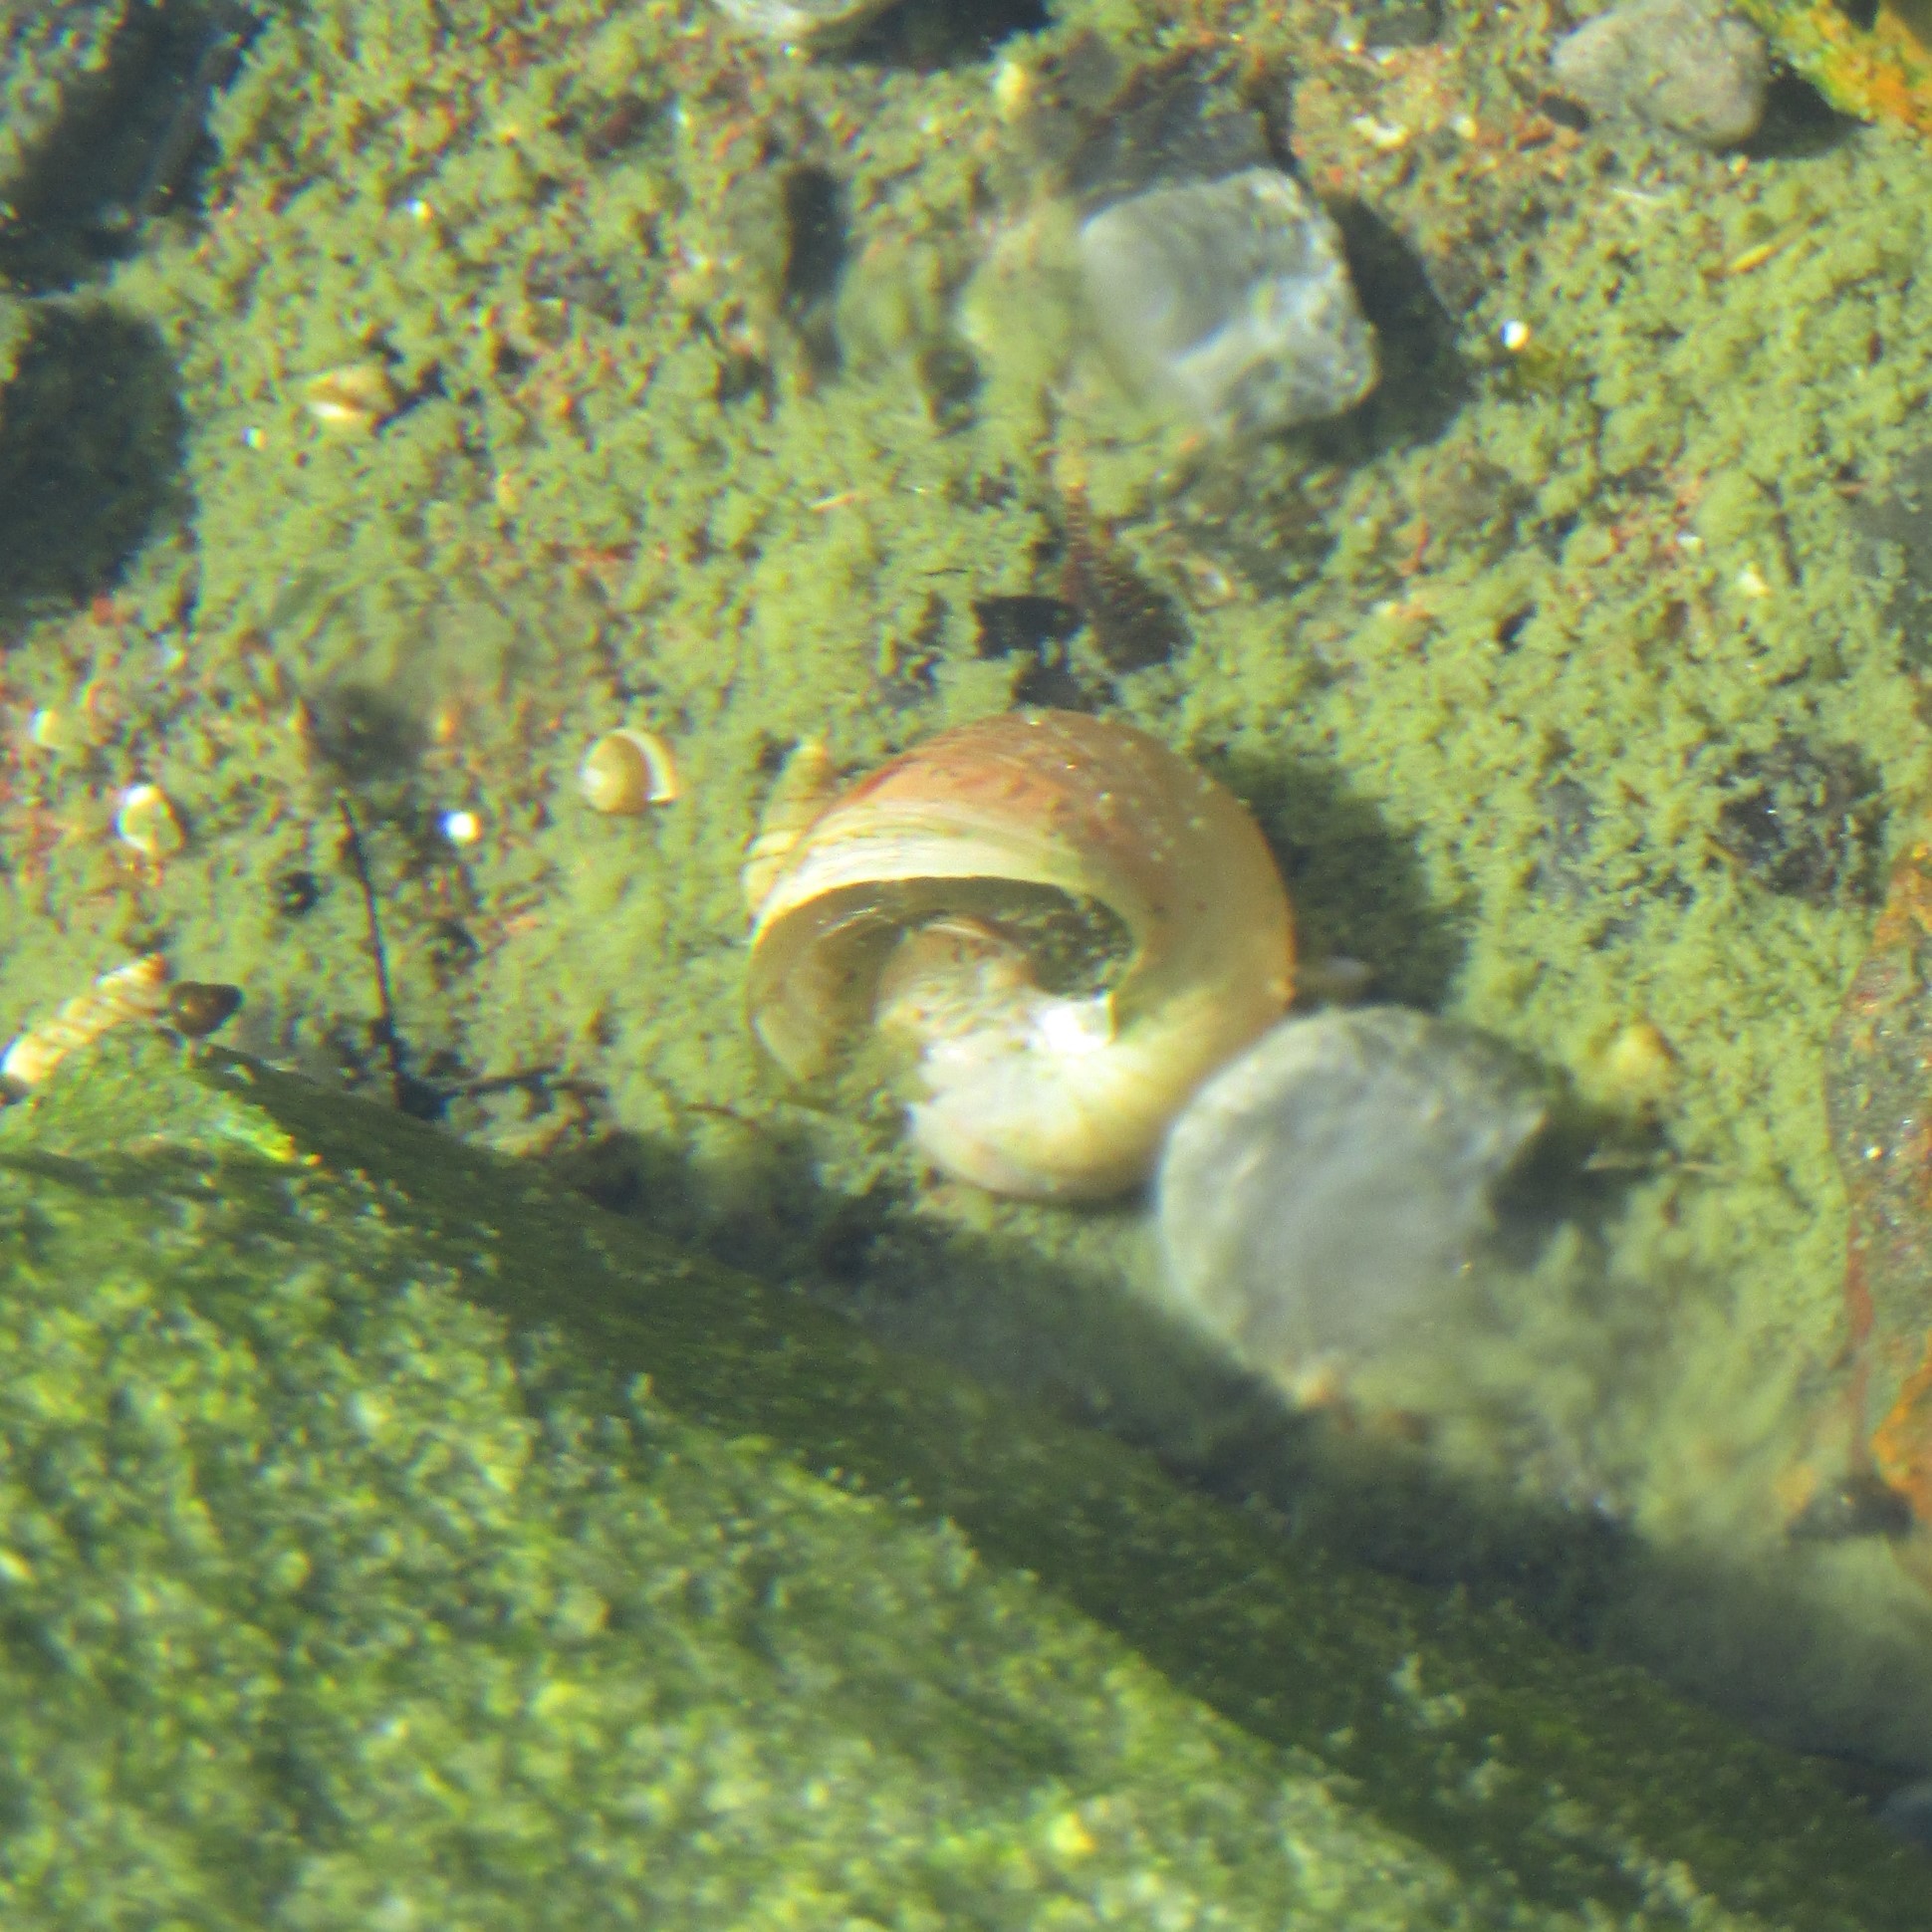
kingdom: Animalia
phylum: Mollusca
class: Gastropoda
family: Lymnaeidae
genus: Lymnaea
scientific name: Lymnaea stagnalis
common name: Great pond snail
